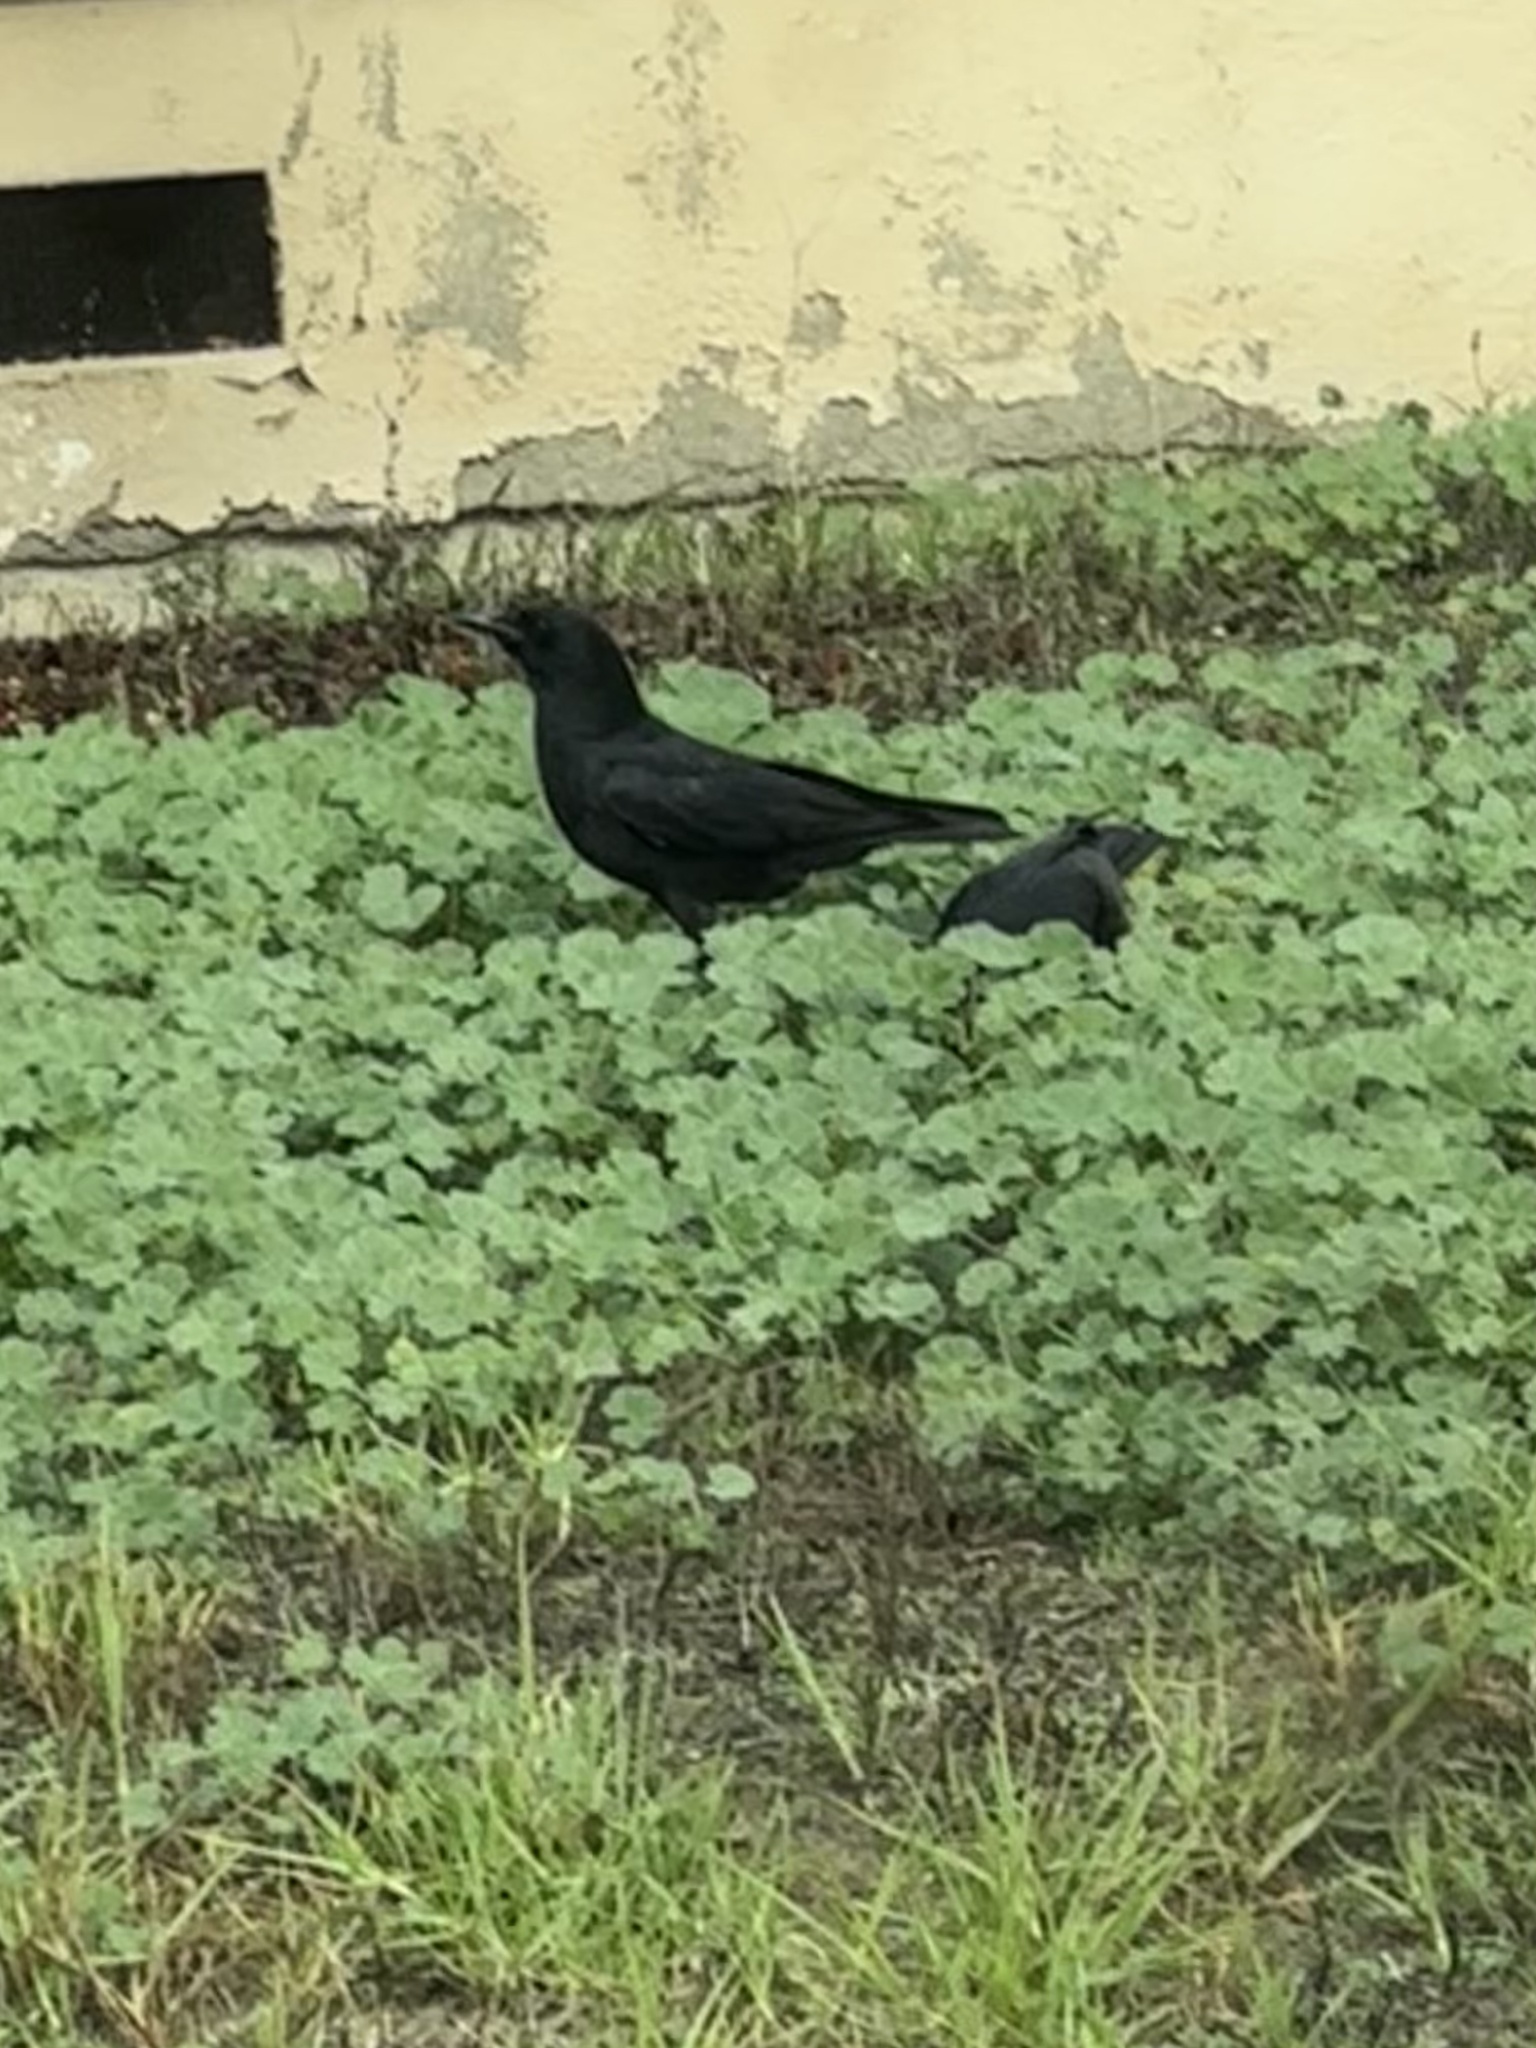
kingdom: Animalia
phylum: Chordata
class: Aves
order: Passeriformes
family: Corvidae
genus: Corvus
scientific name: Corvus brachyrhynchos
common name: American crow
